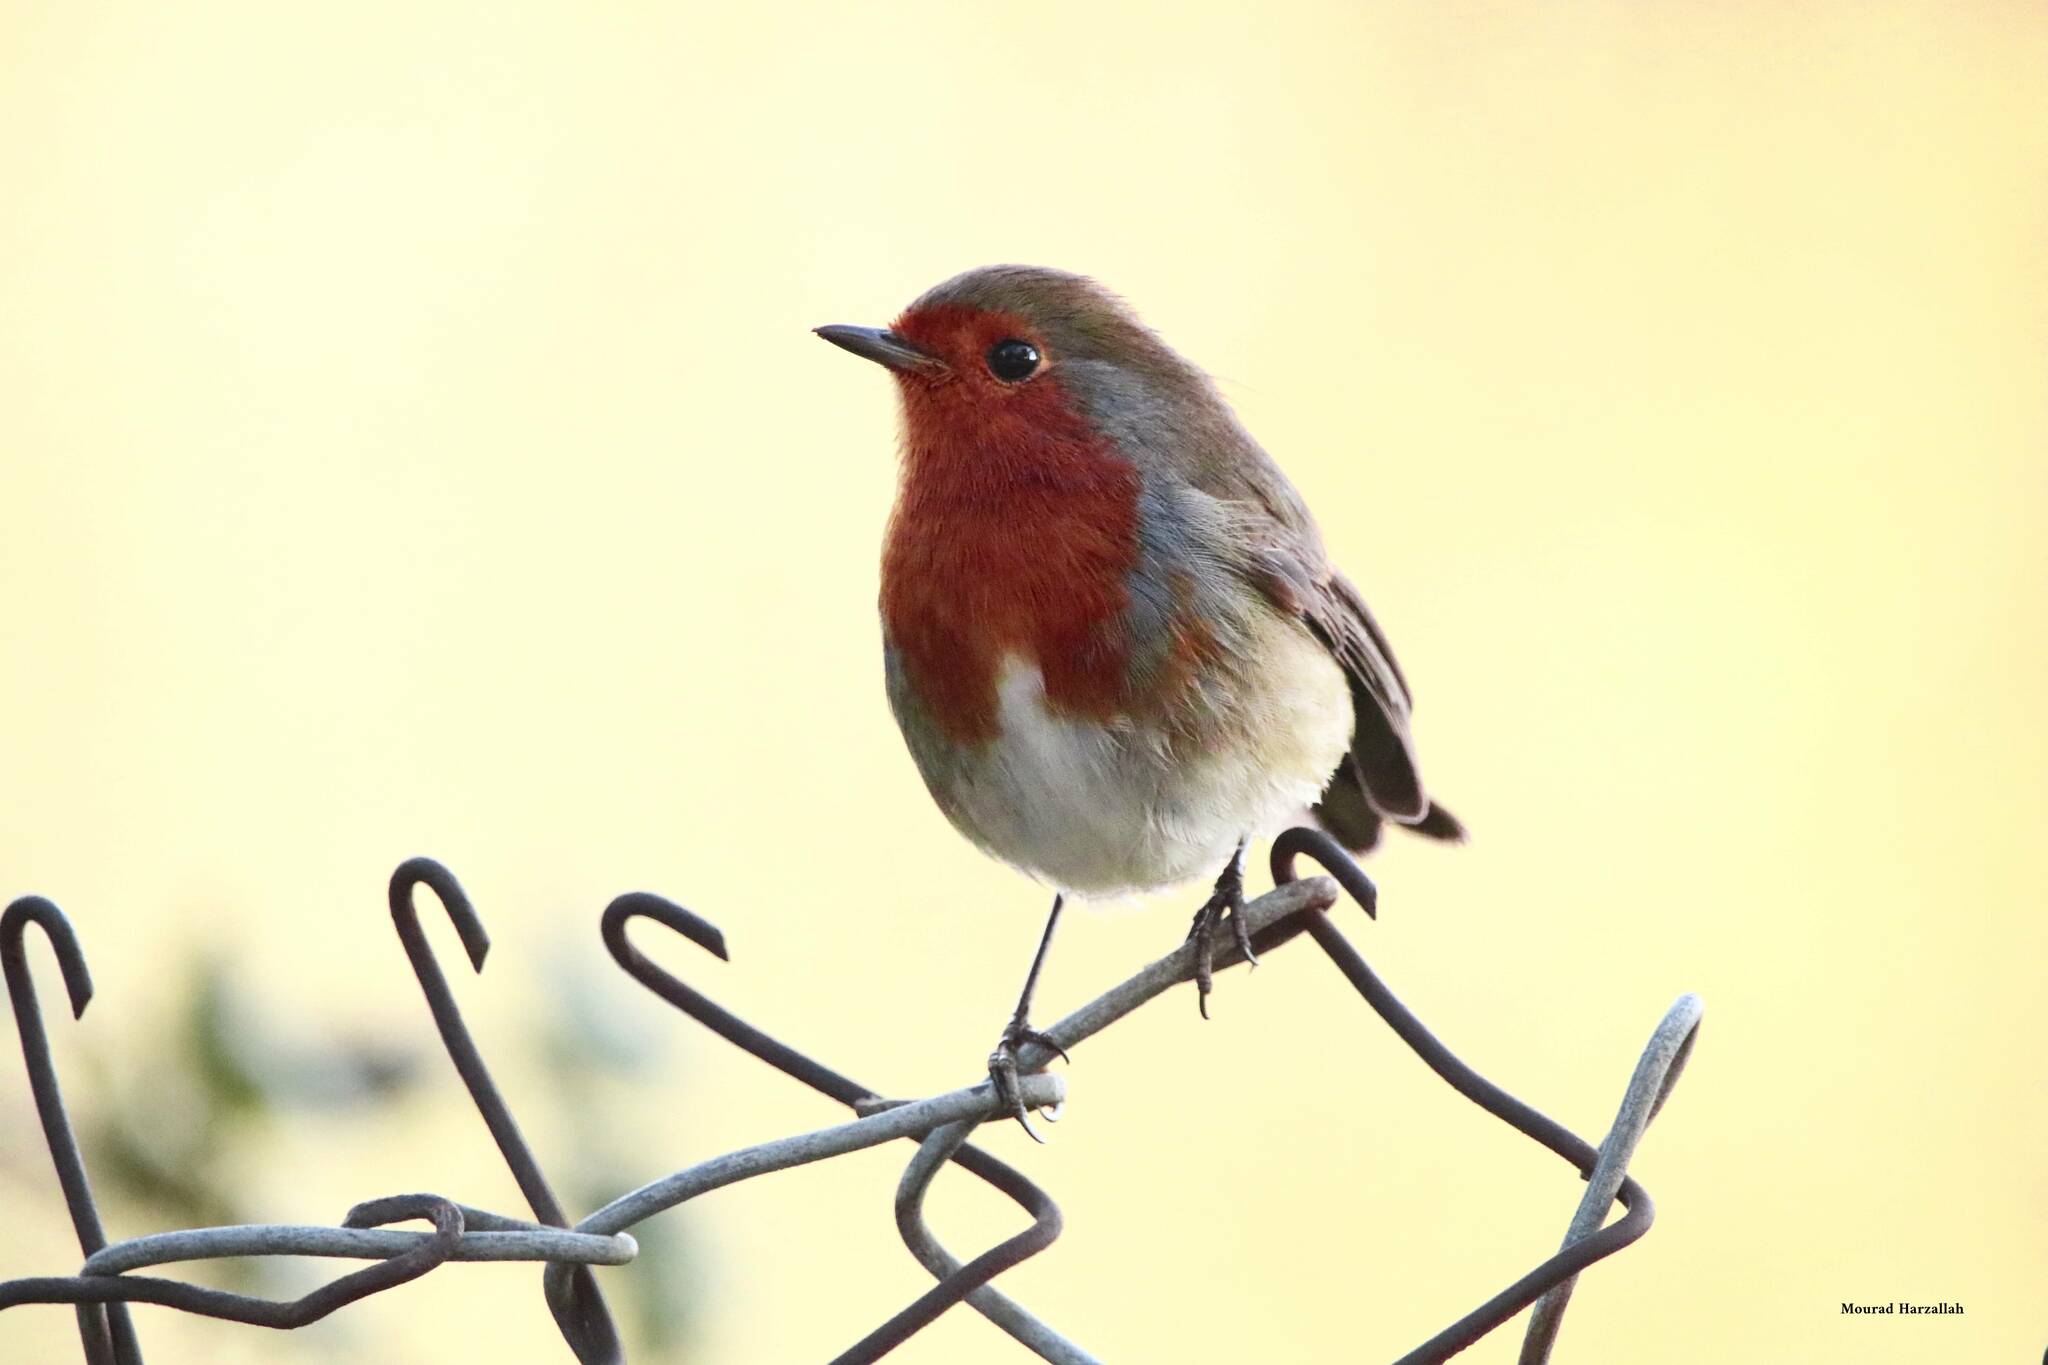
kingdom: Animalia
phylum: Chordata
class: Aves
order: Passeriformes
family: Muscicapidae
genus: Erithacus
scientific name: Erithacus rubecula
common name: European robin
